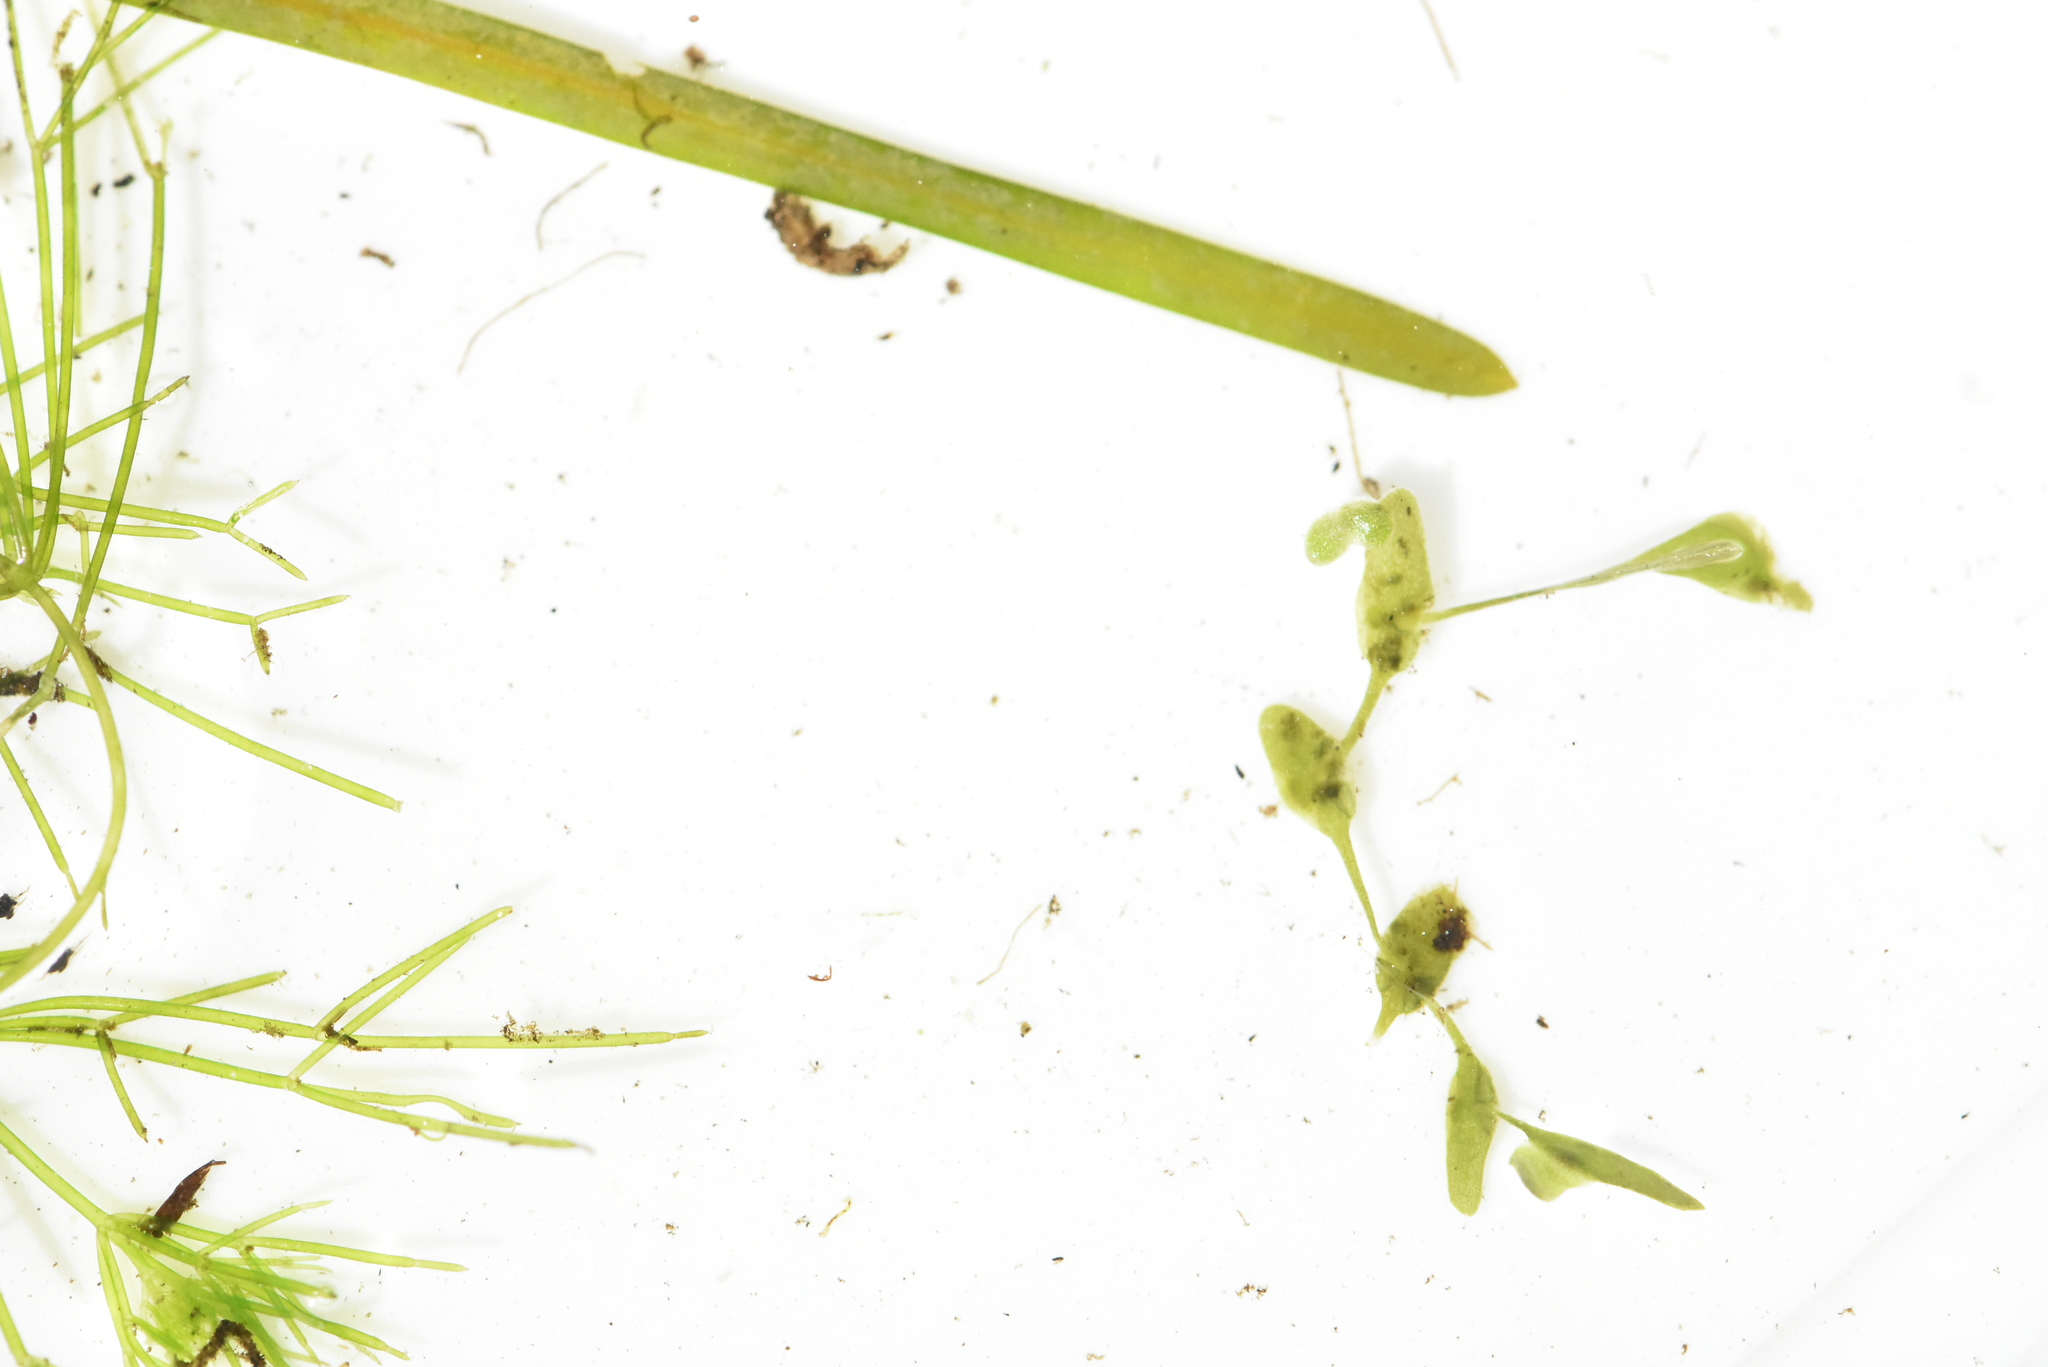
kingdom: Plantae
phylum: Tracheophyta
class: Liliopsida
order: Alismatales
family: Potamogetonaceae
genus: Potamogeton
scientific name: Potamogeton berchtoldii
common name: Small pondweed
